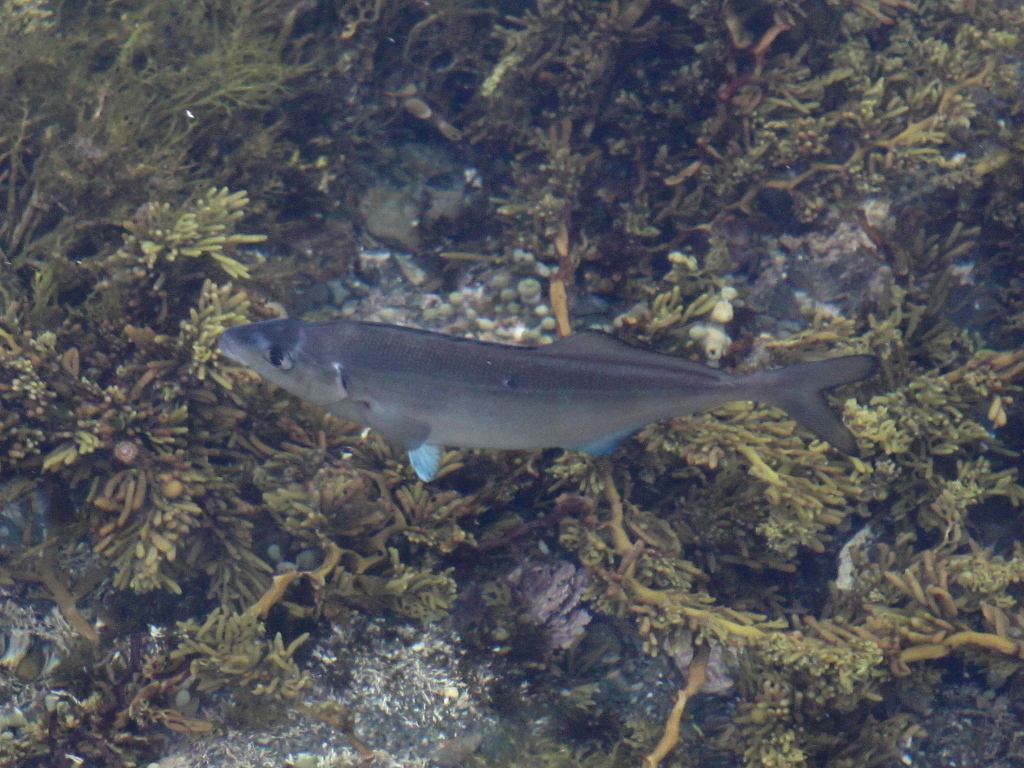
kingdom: Animalia
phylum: Chordata
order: Perciformes
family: Latridae
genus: Latridopsis
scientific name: Latridopsis ciliaris
